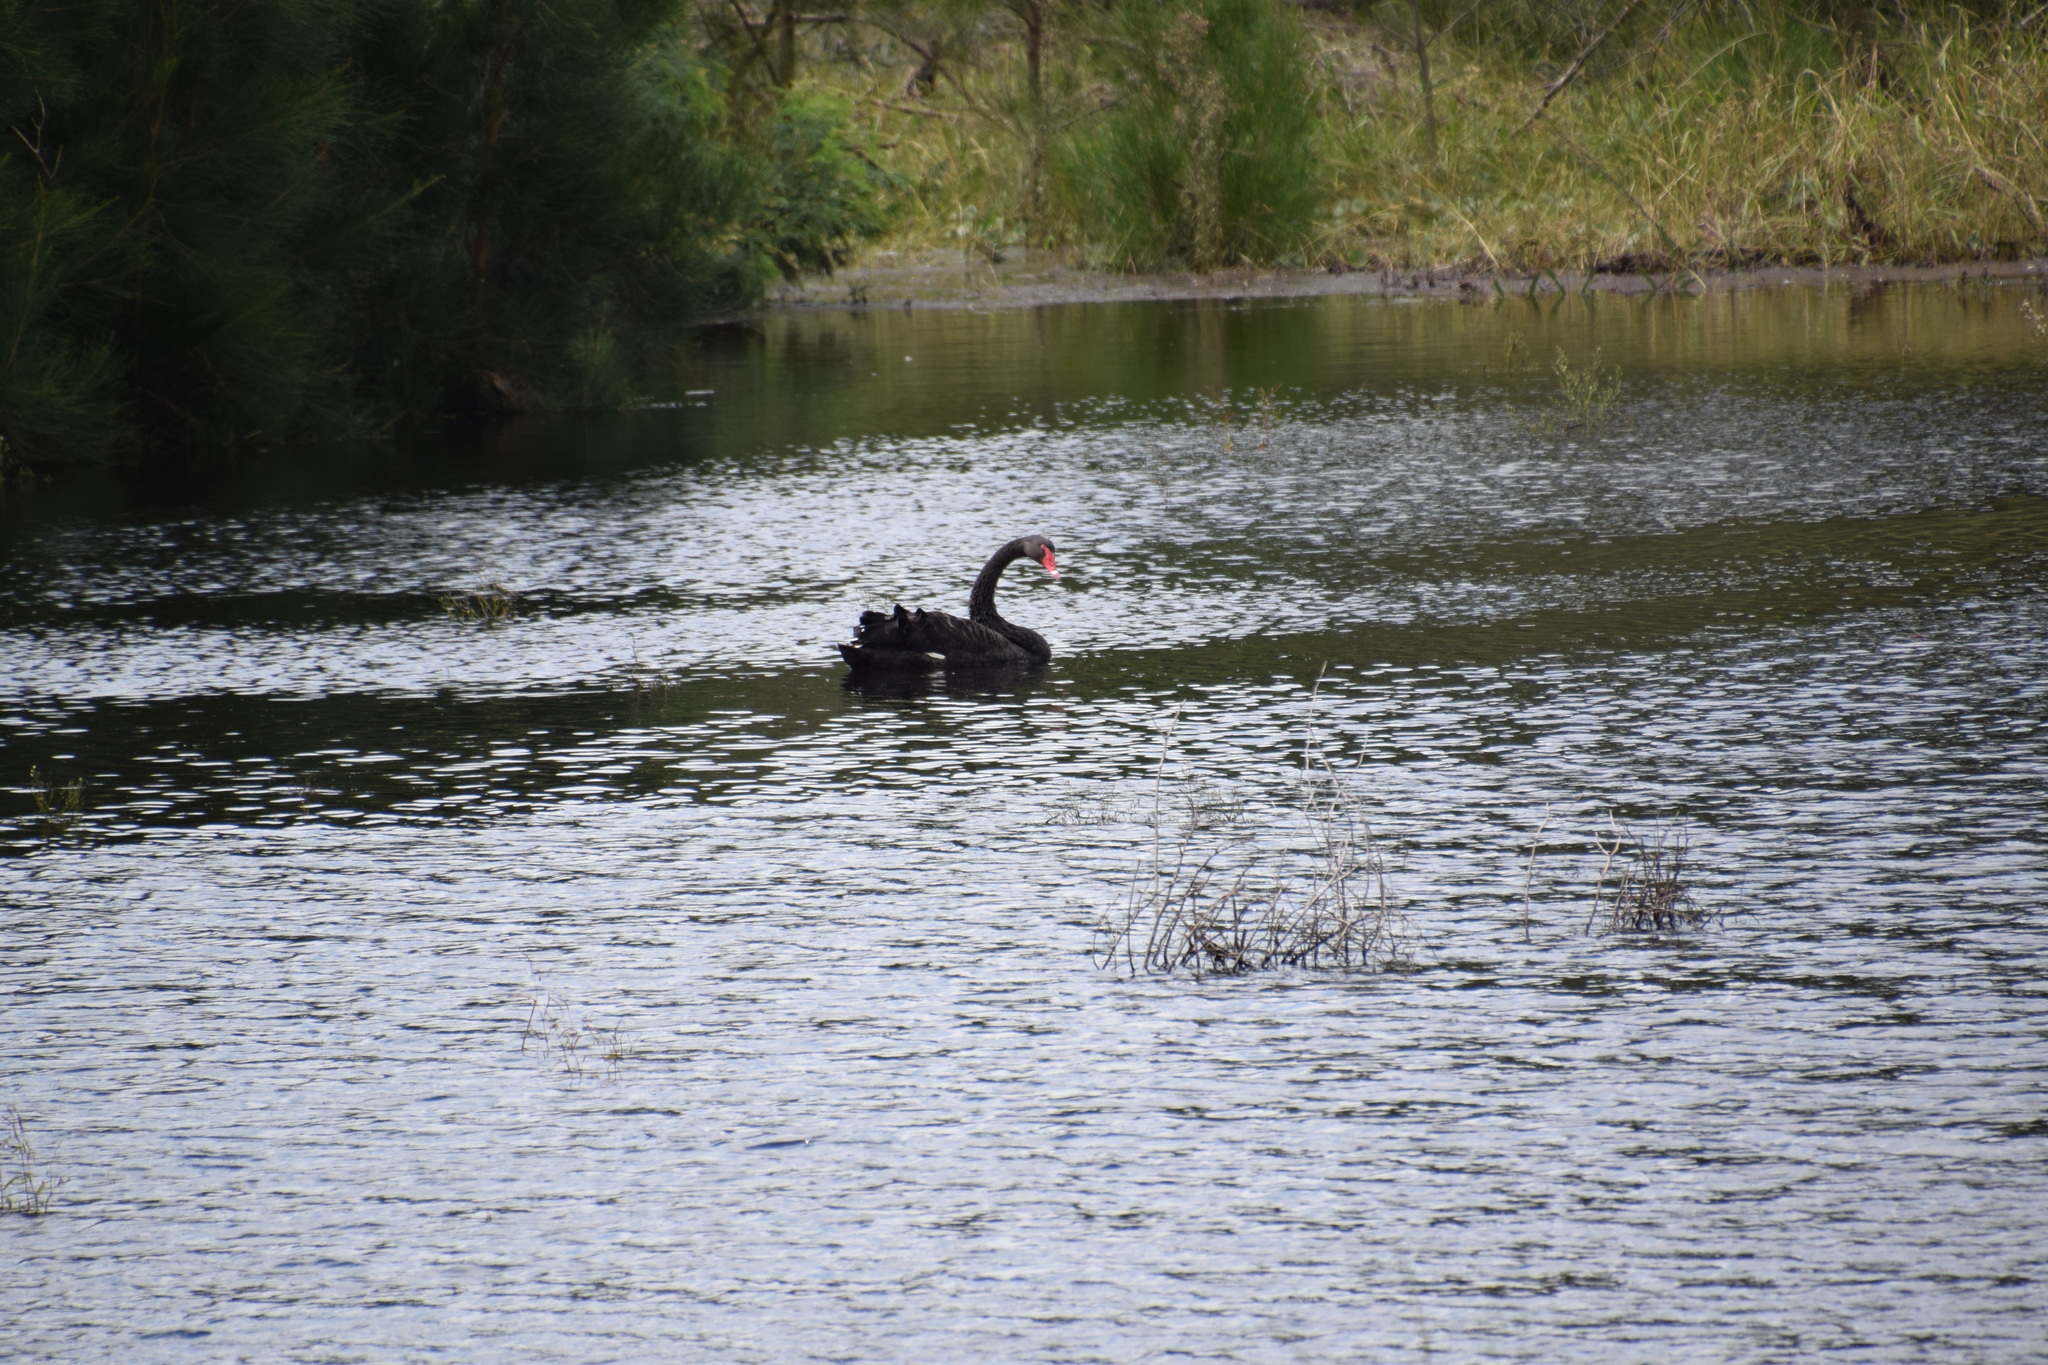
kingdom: Animalia
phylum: Chordata
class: Aves
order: Anseriformes
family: Anatidae
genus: Cygnus
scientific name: Cygnus atratus
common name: Black swan
